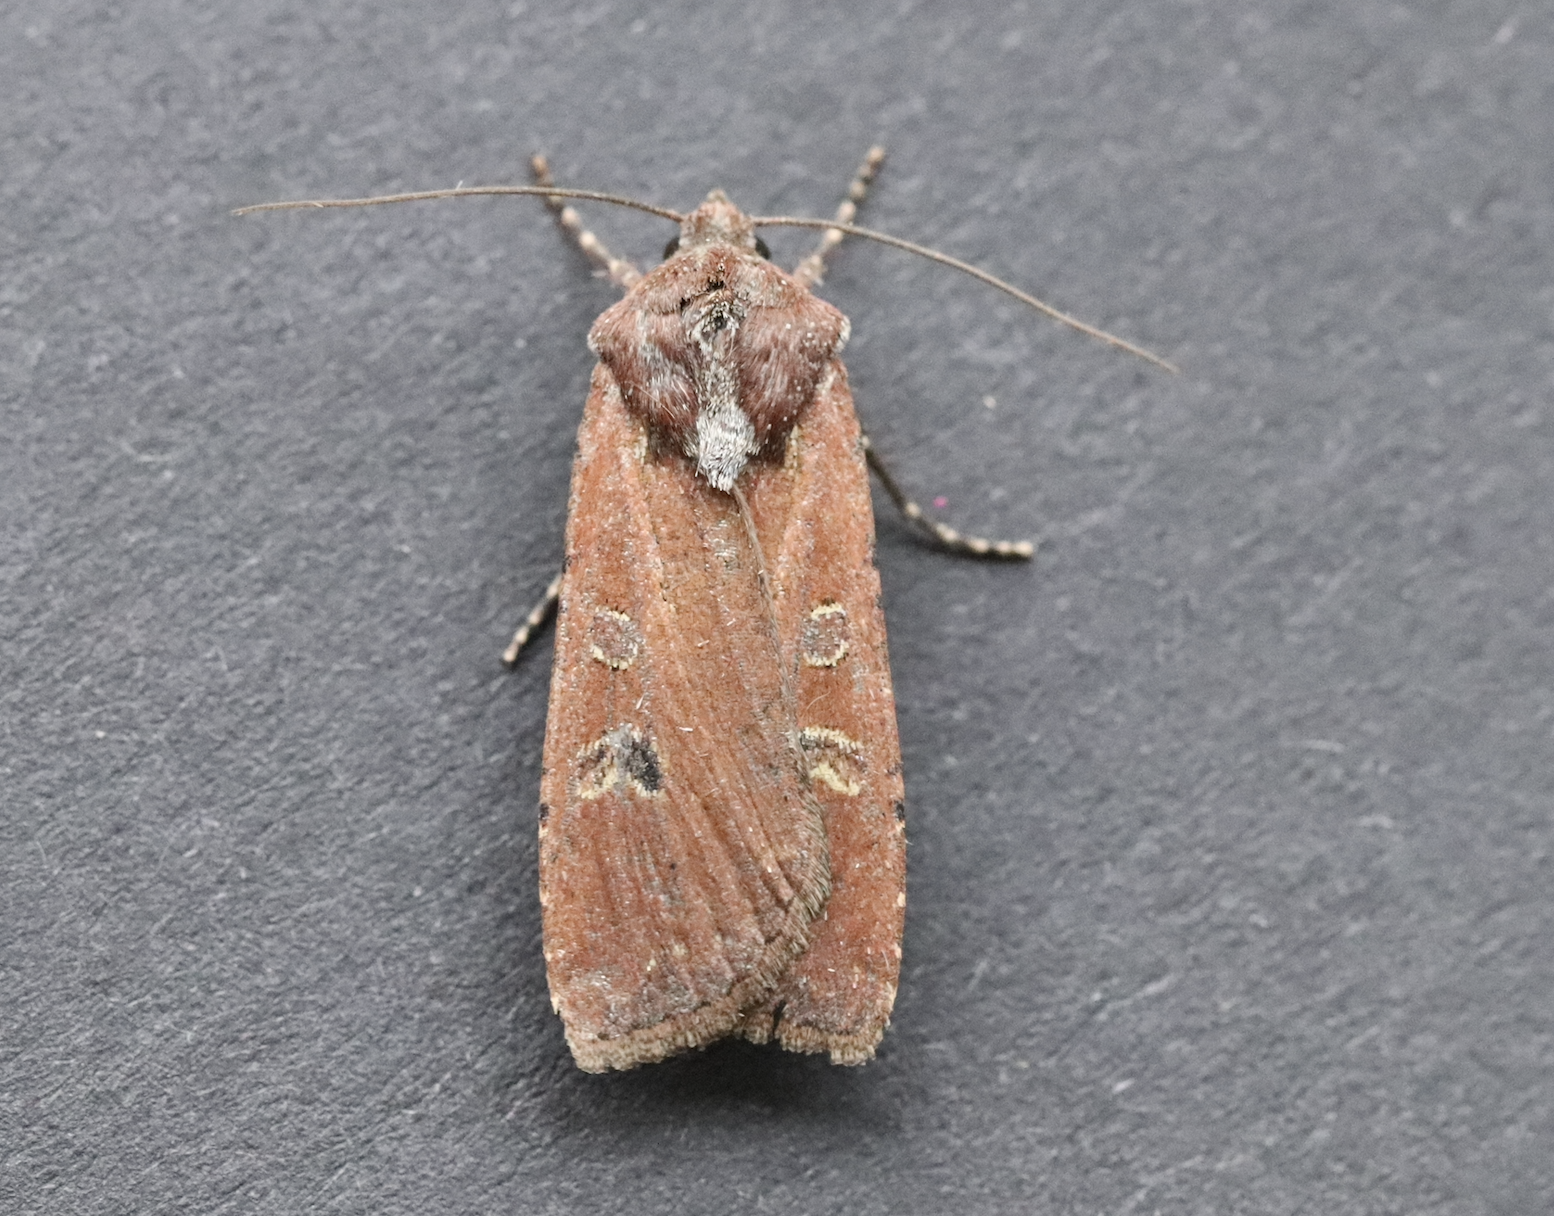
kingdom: Animalia
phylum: Arthropoda
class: Insecta
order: Lepidoptera
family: Noctuidae
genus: Euxoa
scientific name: Euxoa ochrogaster
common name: Red-backed cutworm moth
